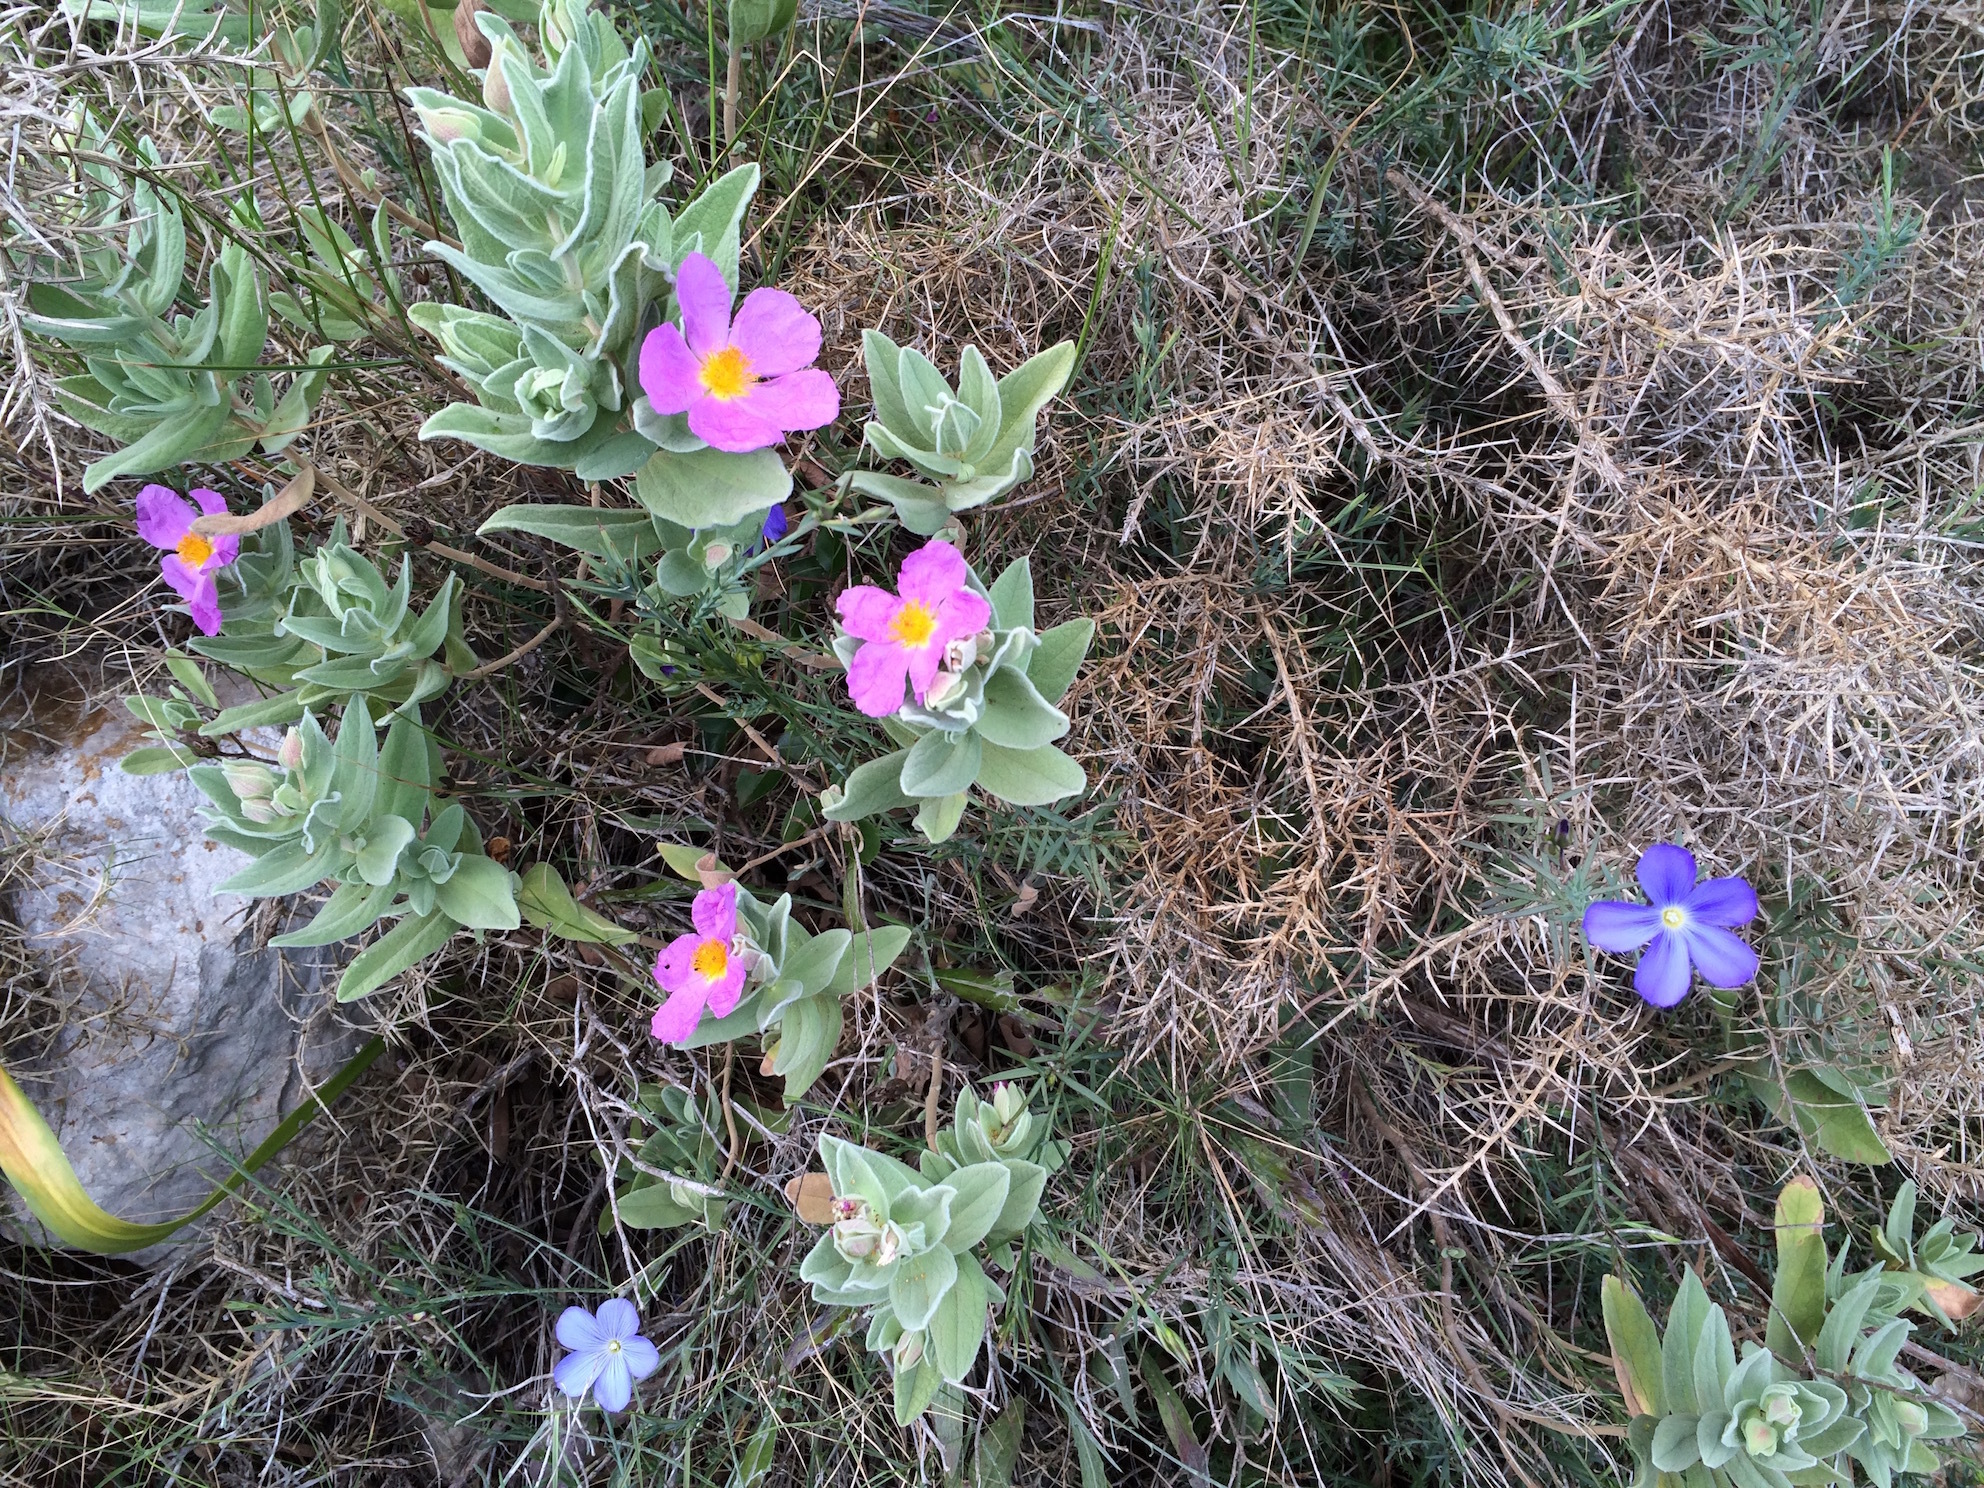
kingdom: Plantae
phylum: Tracheophyta
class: Magnoliopsida
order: Malvales
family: Cistaceae
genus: Cistus
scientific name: Cistus albidus
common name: White-leaf rock-rose
